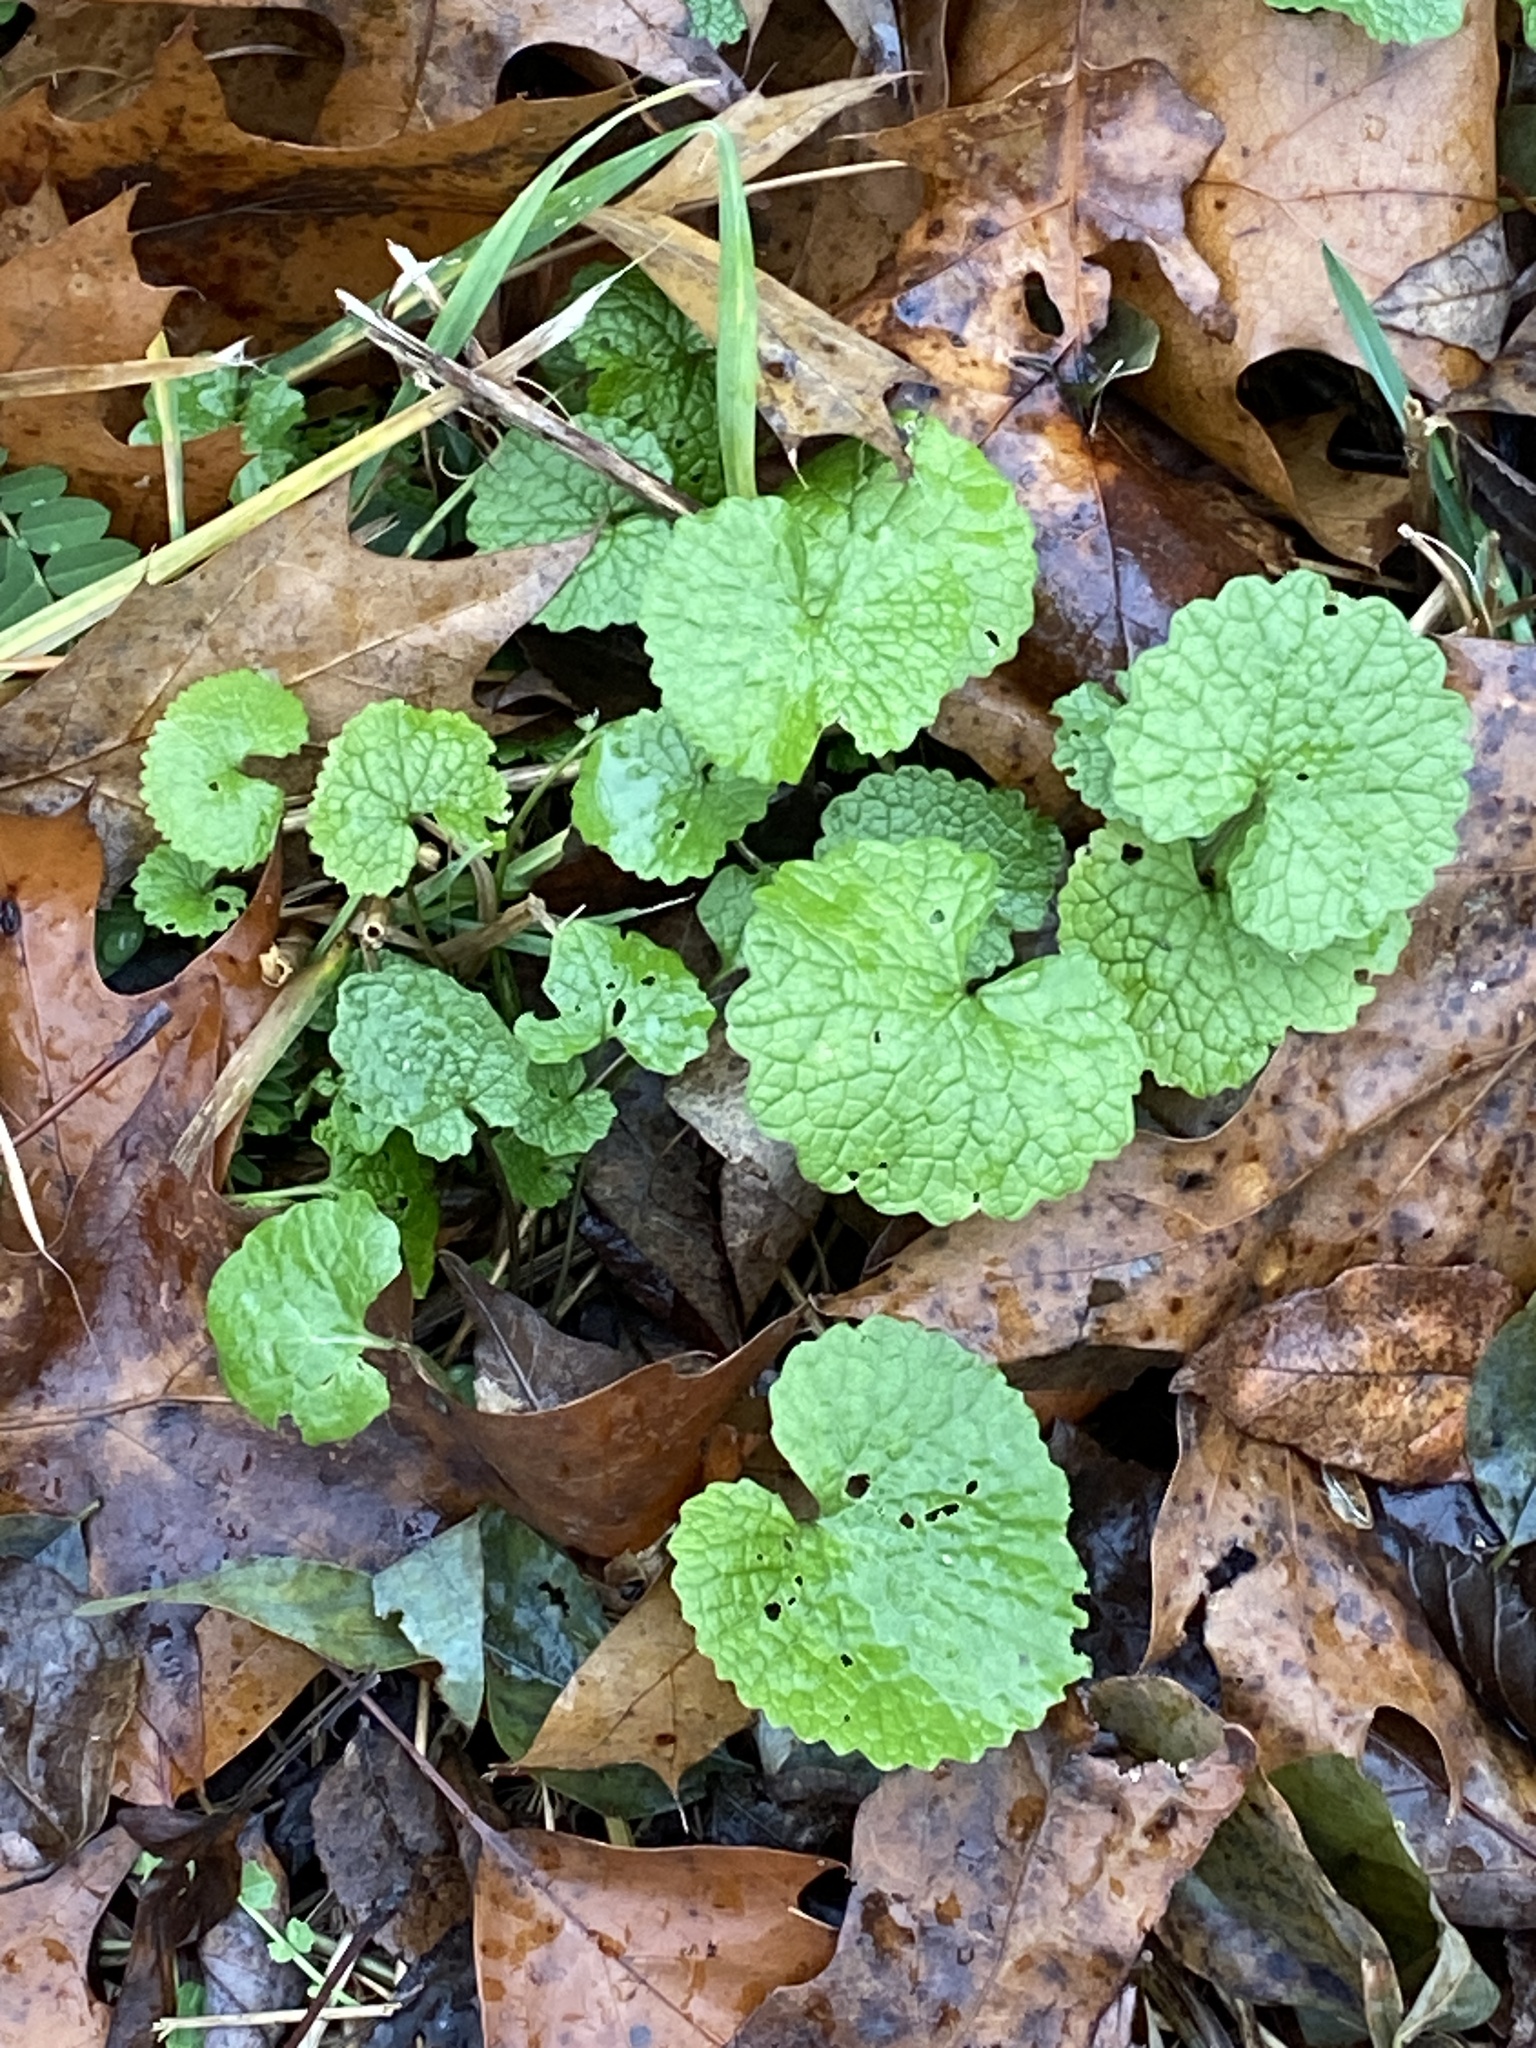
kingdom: Plantae
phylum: Tracheophyta
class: Magnoliopsida
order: Brassicales
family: Brassicaceae
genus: Alliaria
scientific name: Alliaria petiolata
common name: Garlic mustard
